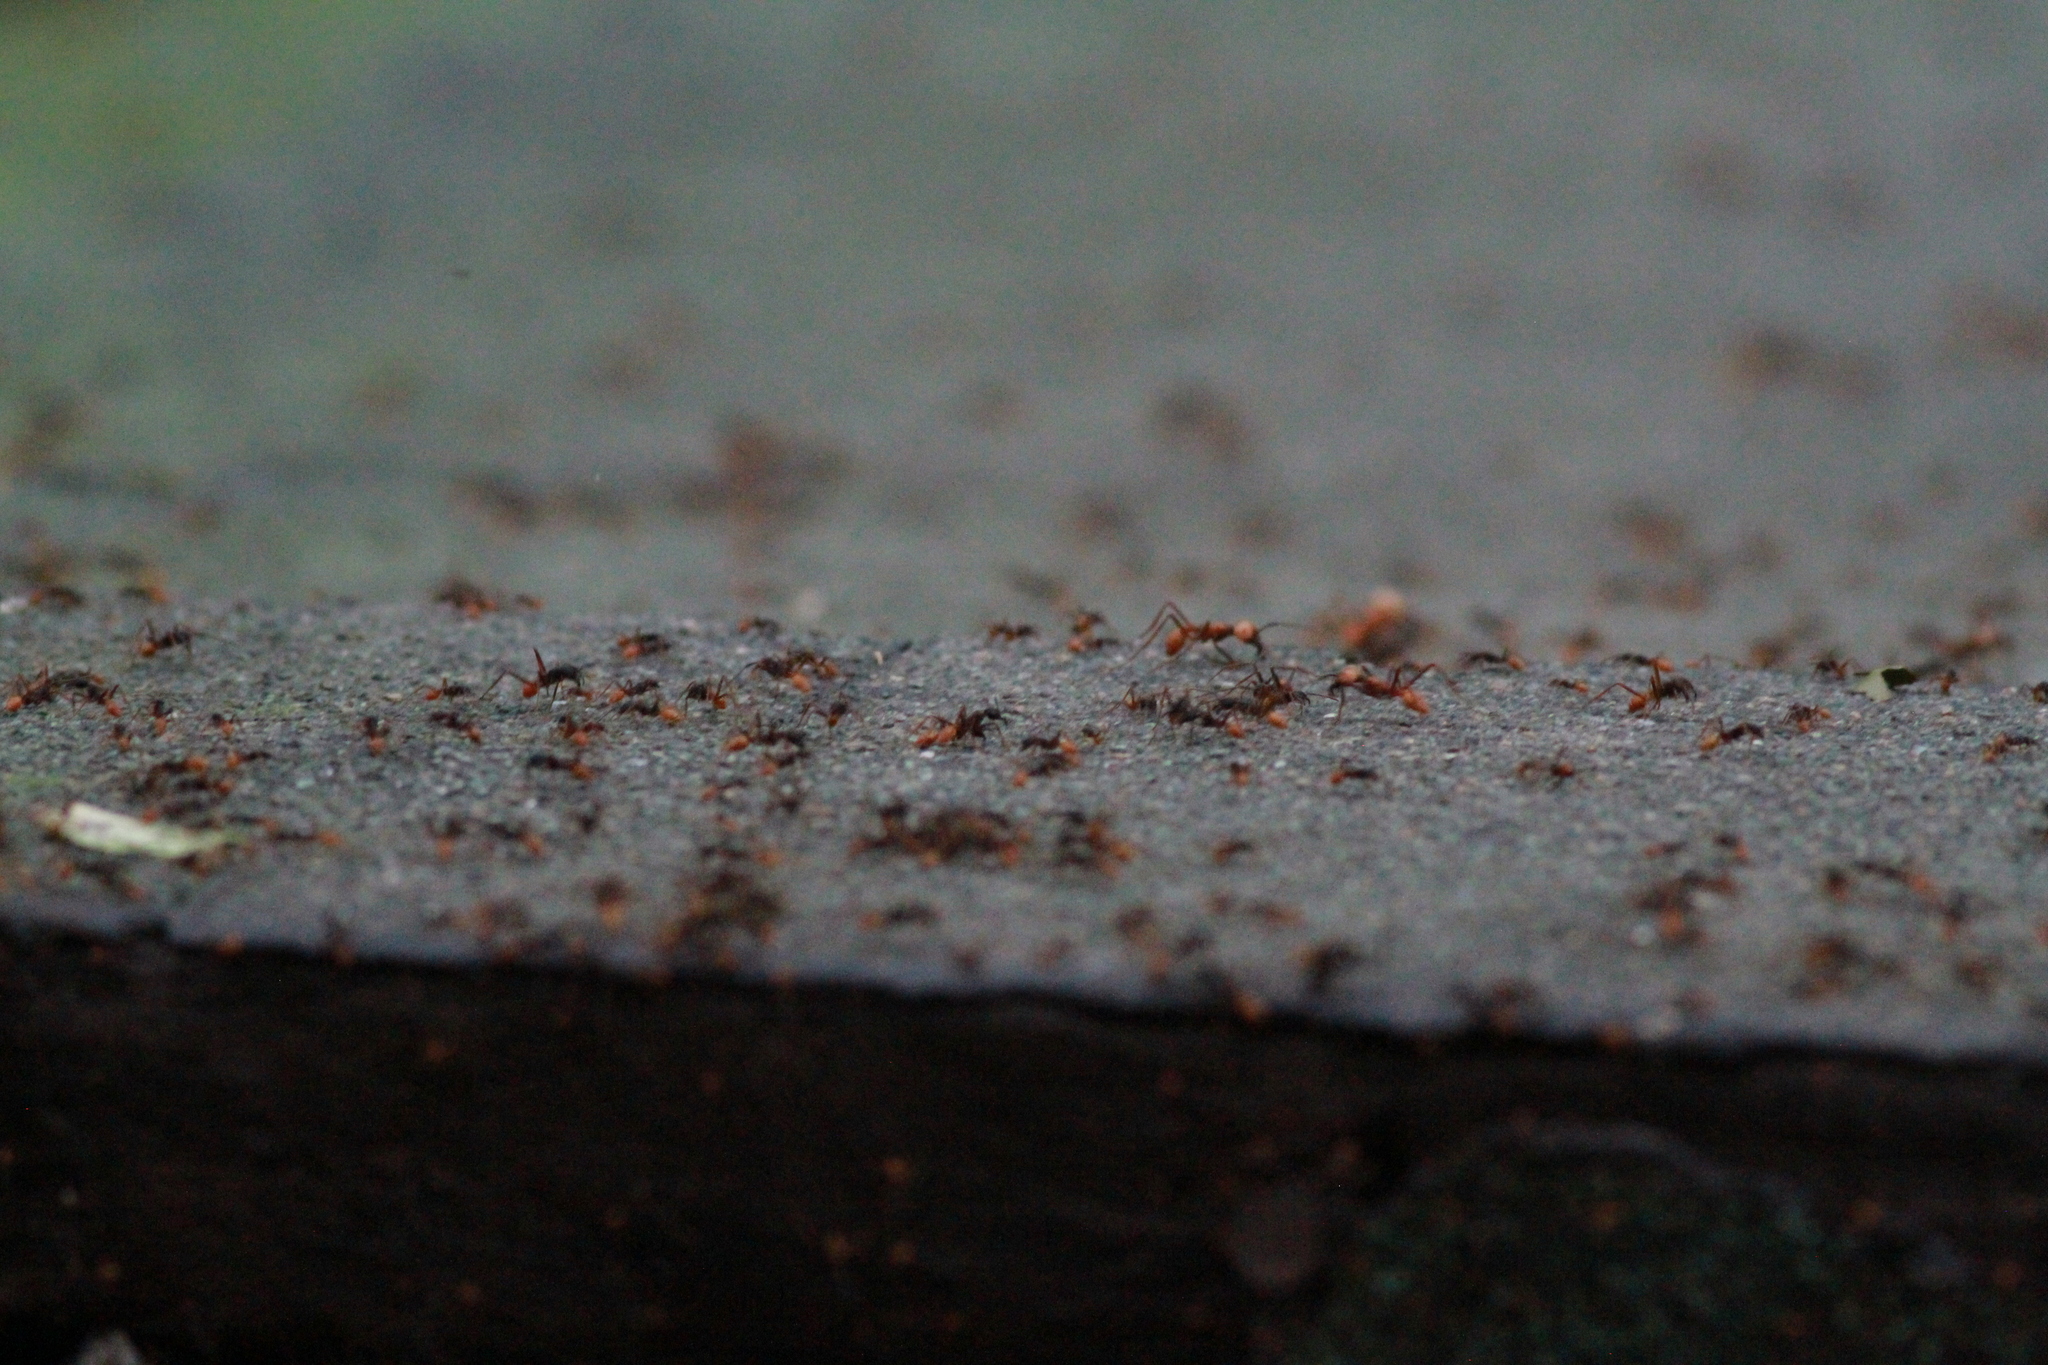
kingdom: Animalia
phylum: Arthropoda
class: Insecta
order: Hymenoptera
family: Formicidae
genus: Eciton
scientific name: Eciton burchellii
